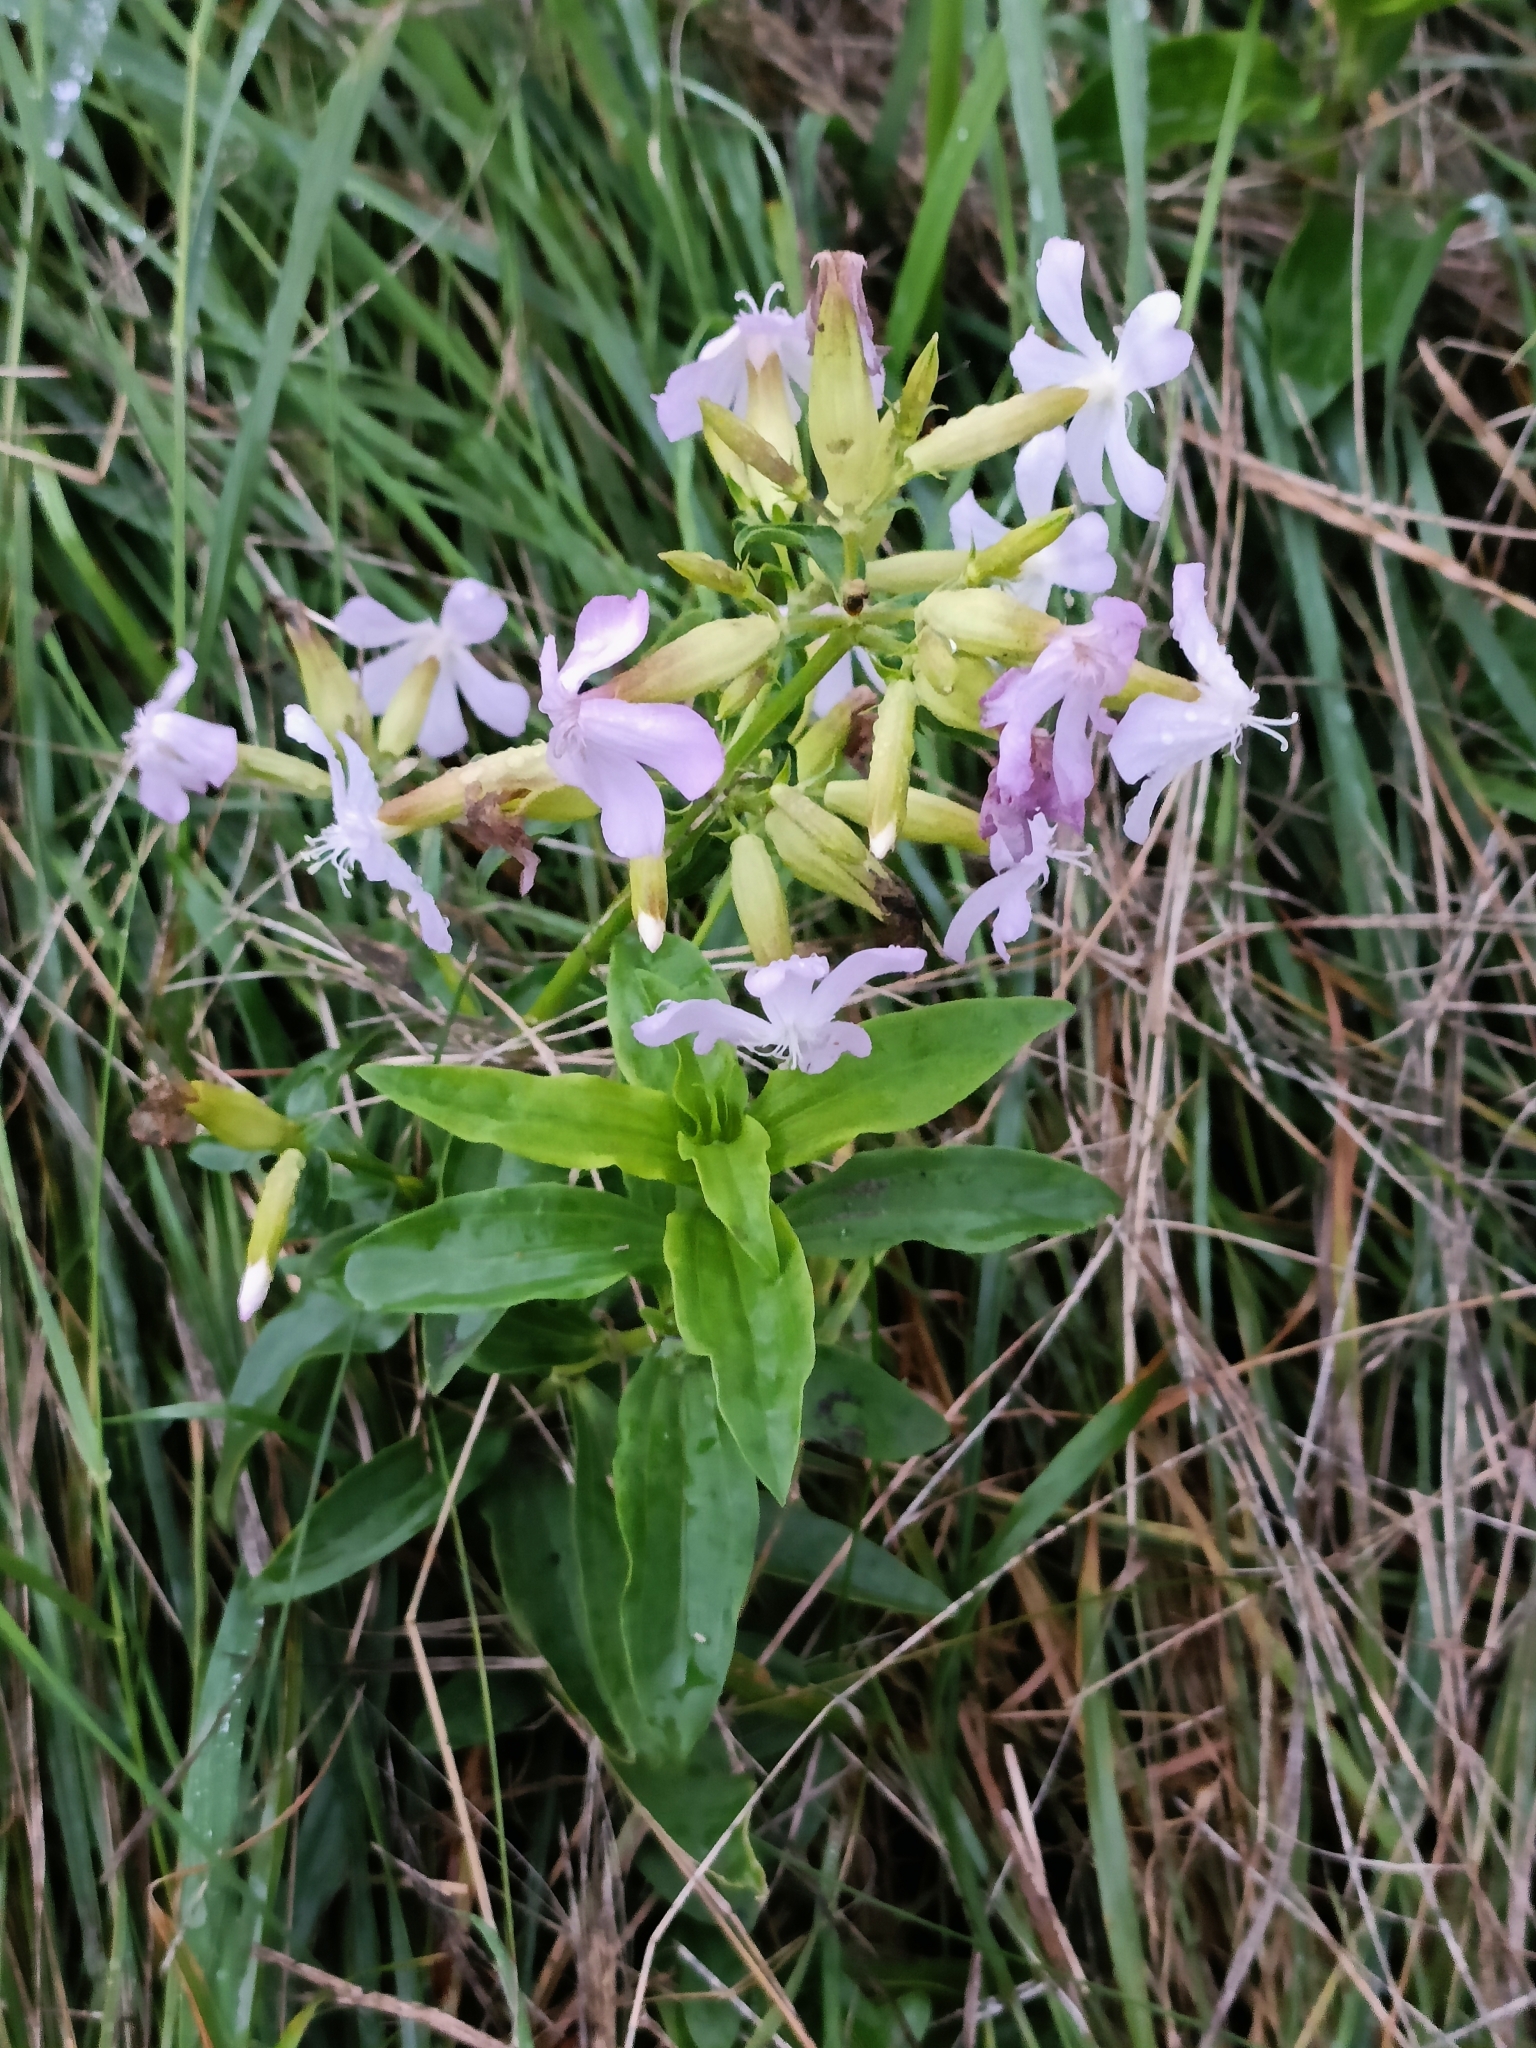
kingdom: Plantae
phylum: Tracheophyta
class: Magnoliopsida
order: Caryophyllales
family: Caryophyllaceae
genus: Saponaria
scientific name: Saponaria officinalis
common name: Soapwort
